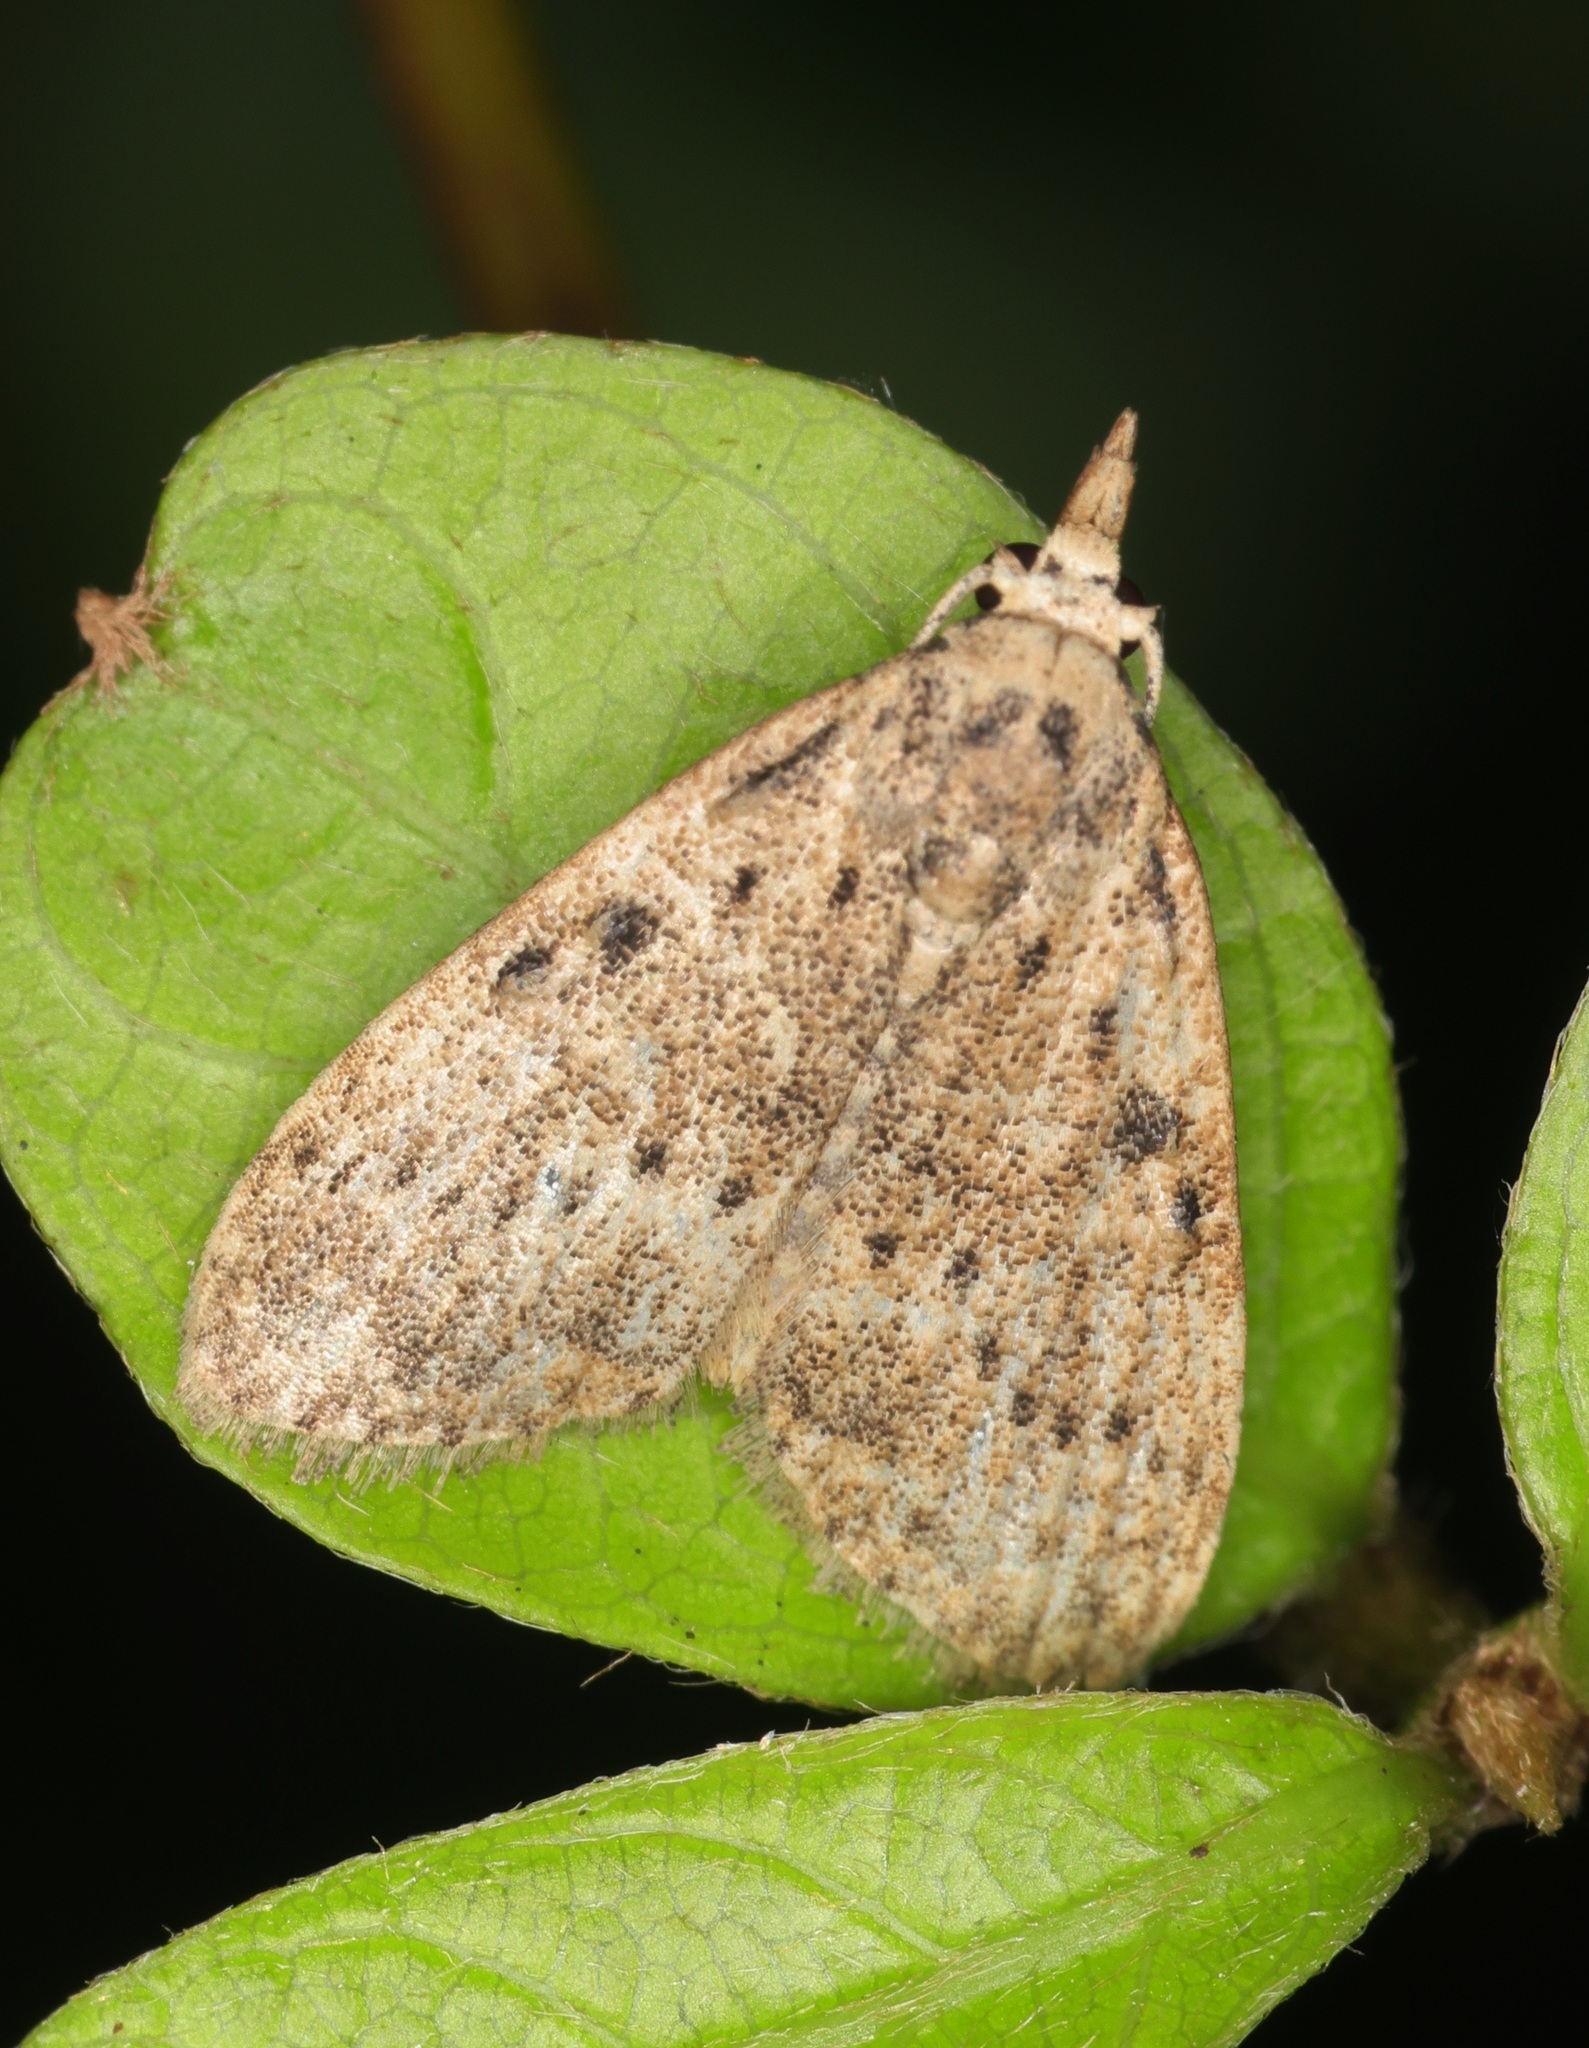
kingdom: Animalia
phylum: Arthropoda
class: Insecta
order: Lepidoptera
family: Nolidae
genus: Meganola
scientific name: Meganola
